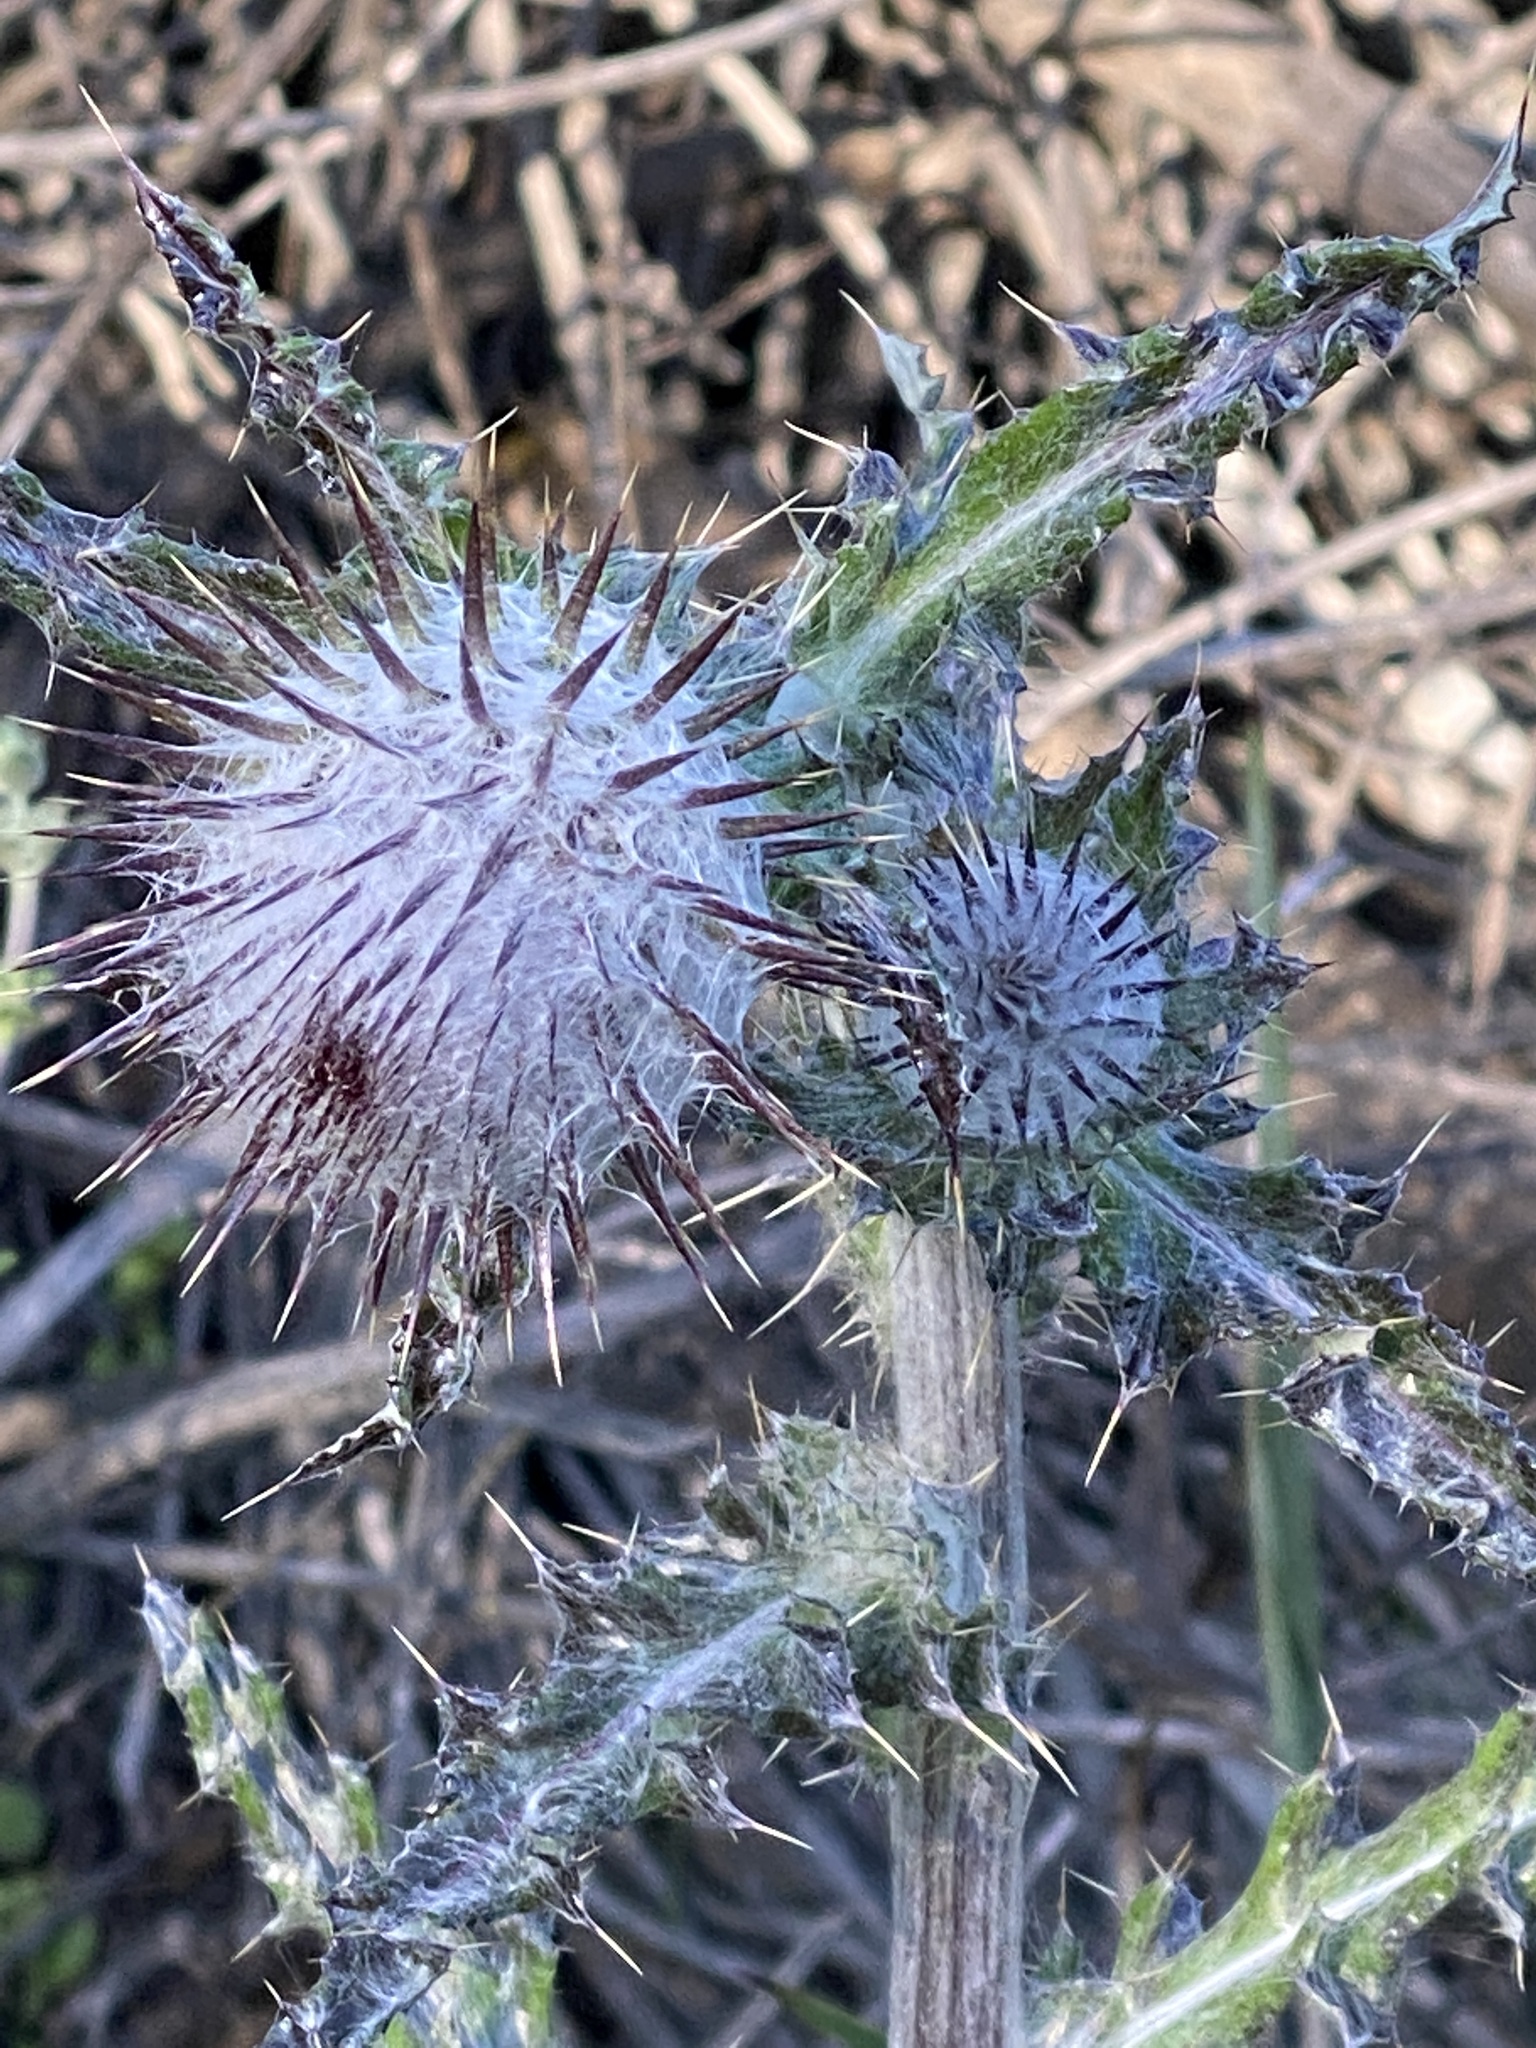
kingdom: Plantae
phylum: Tracheophyta
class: Magnoliopsida
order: Asterales
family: Asteraceae
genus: Cirsium
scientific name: Cirsium occidentale
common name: Western thistle
